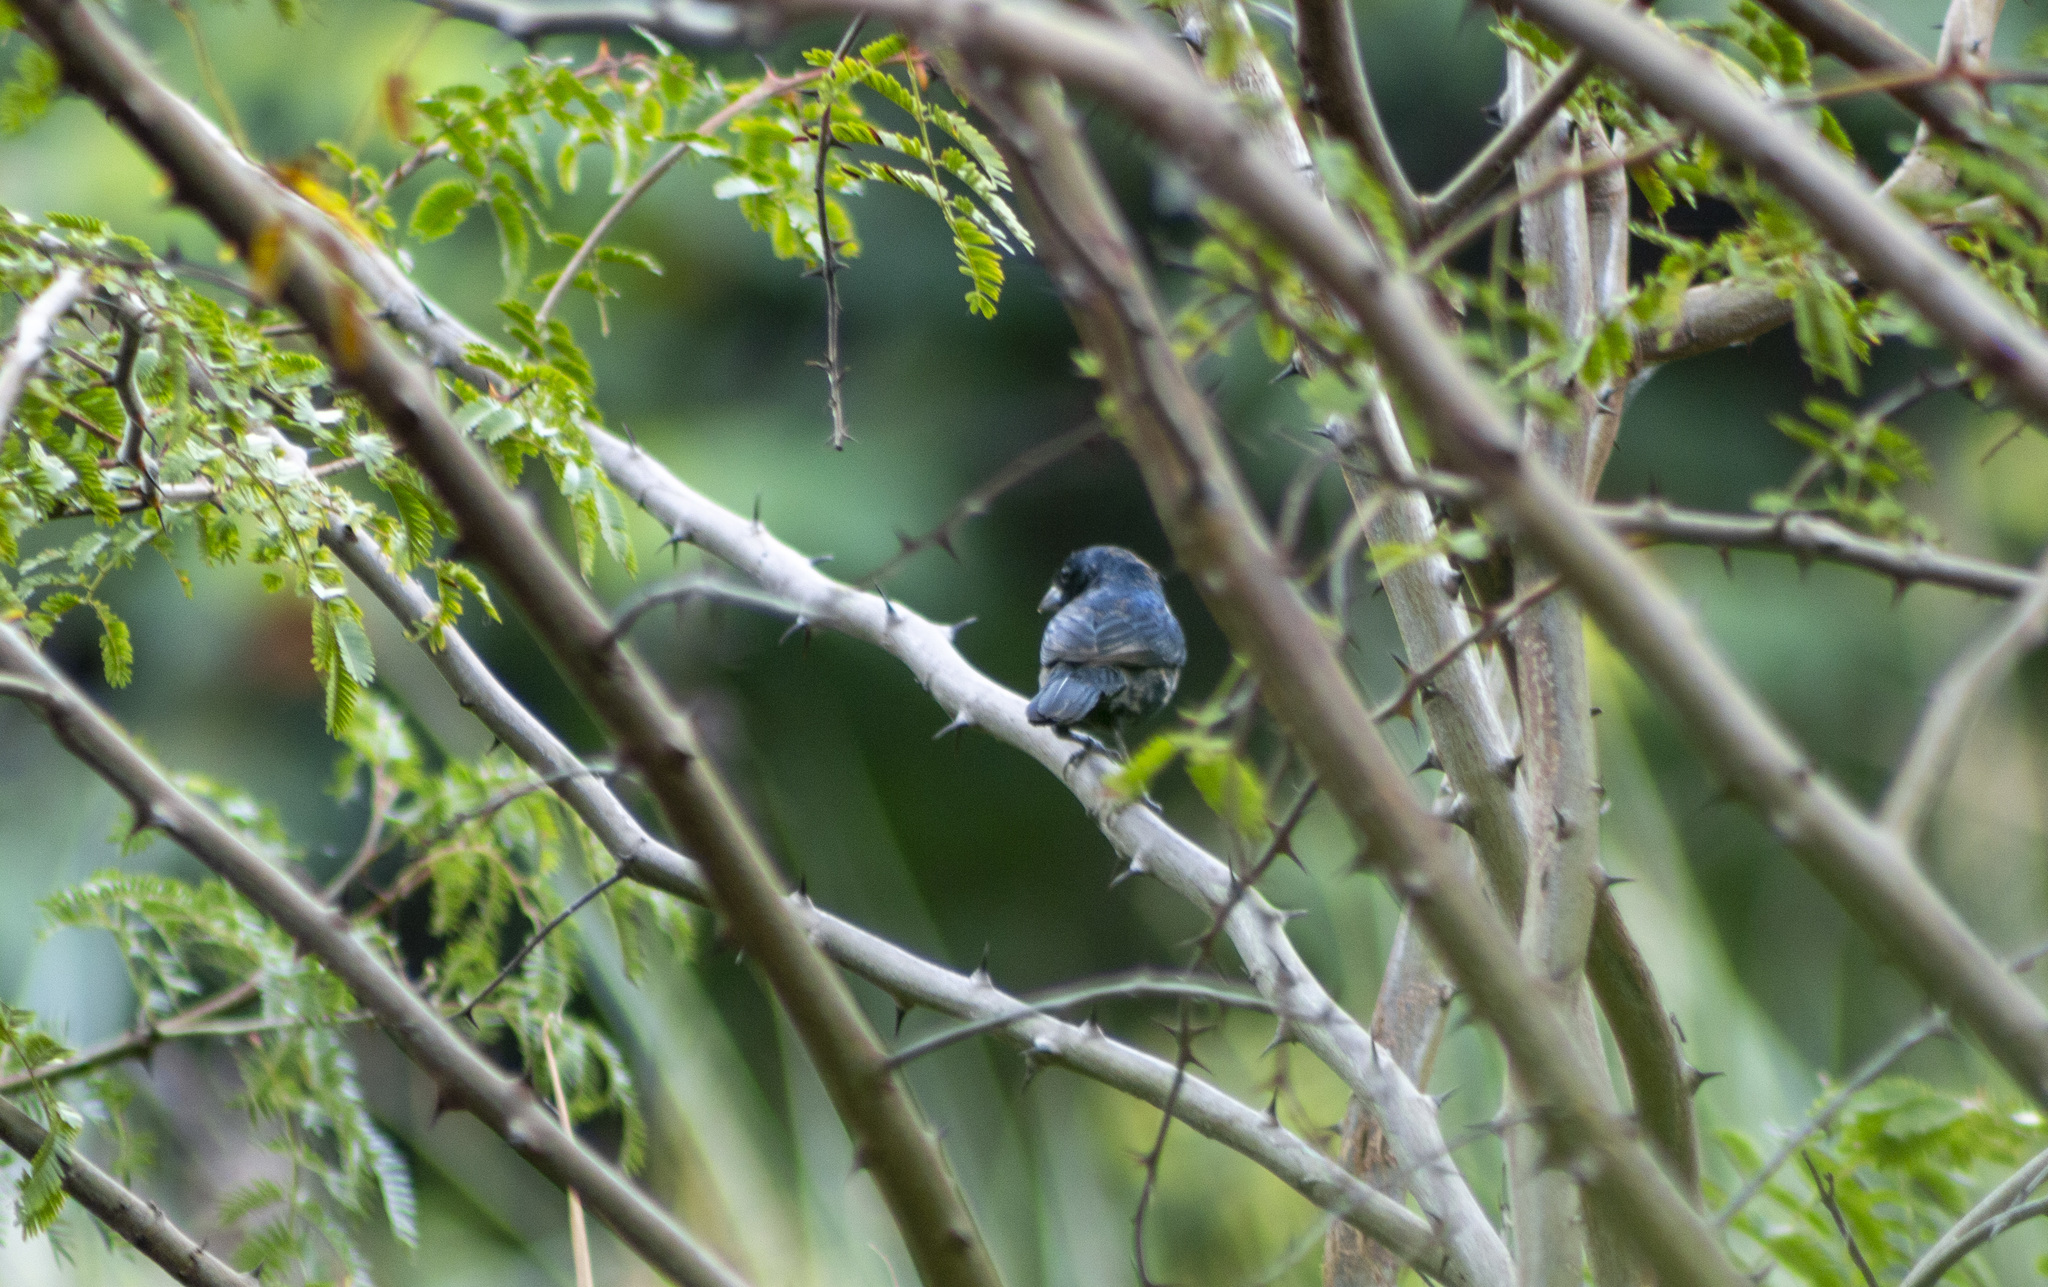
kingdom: Animalia
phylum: Chordata
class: Aves
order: Passeriformes
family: Thraupidae
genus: Volatinia
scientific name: Volatinia jacarina
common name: Blue-black grassquit
